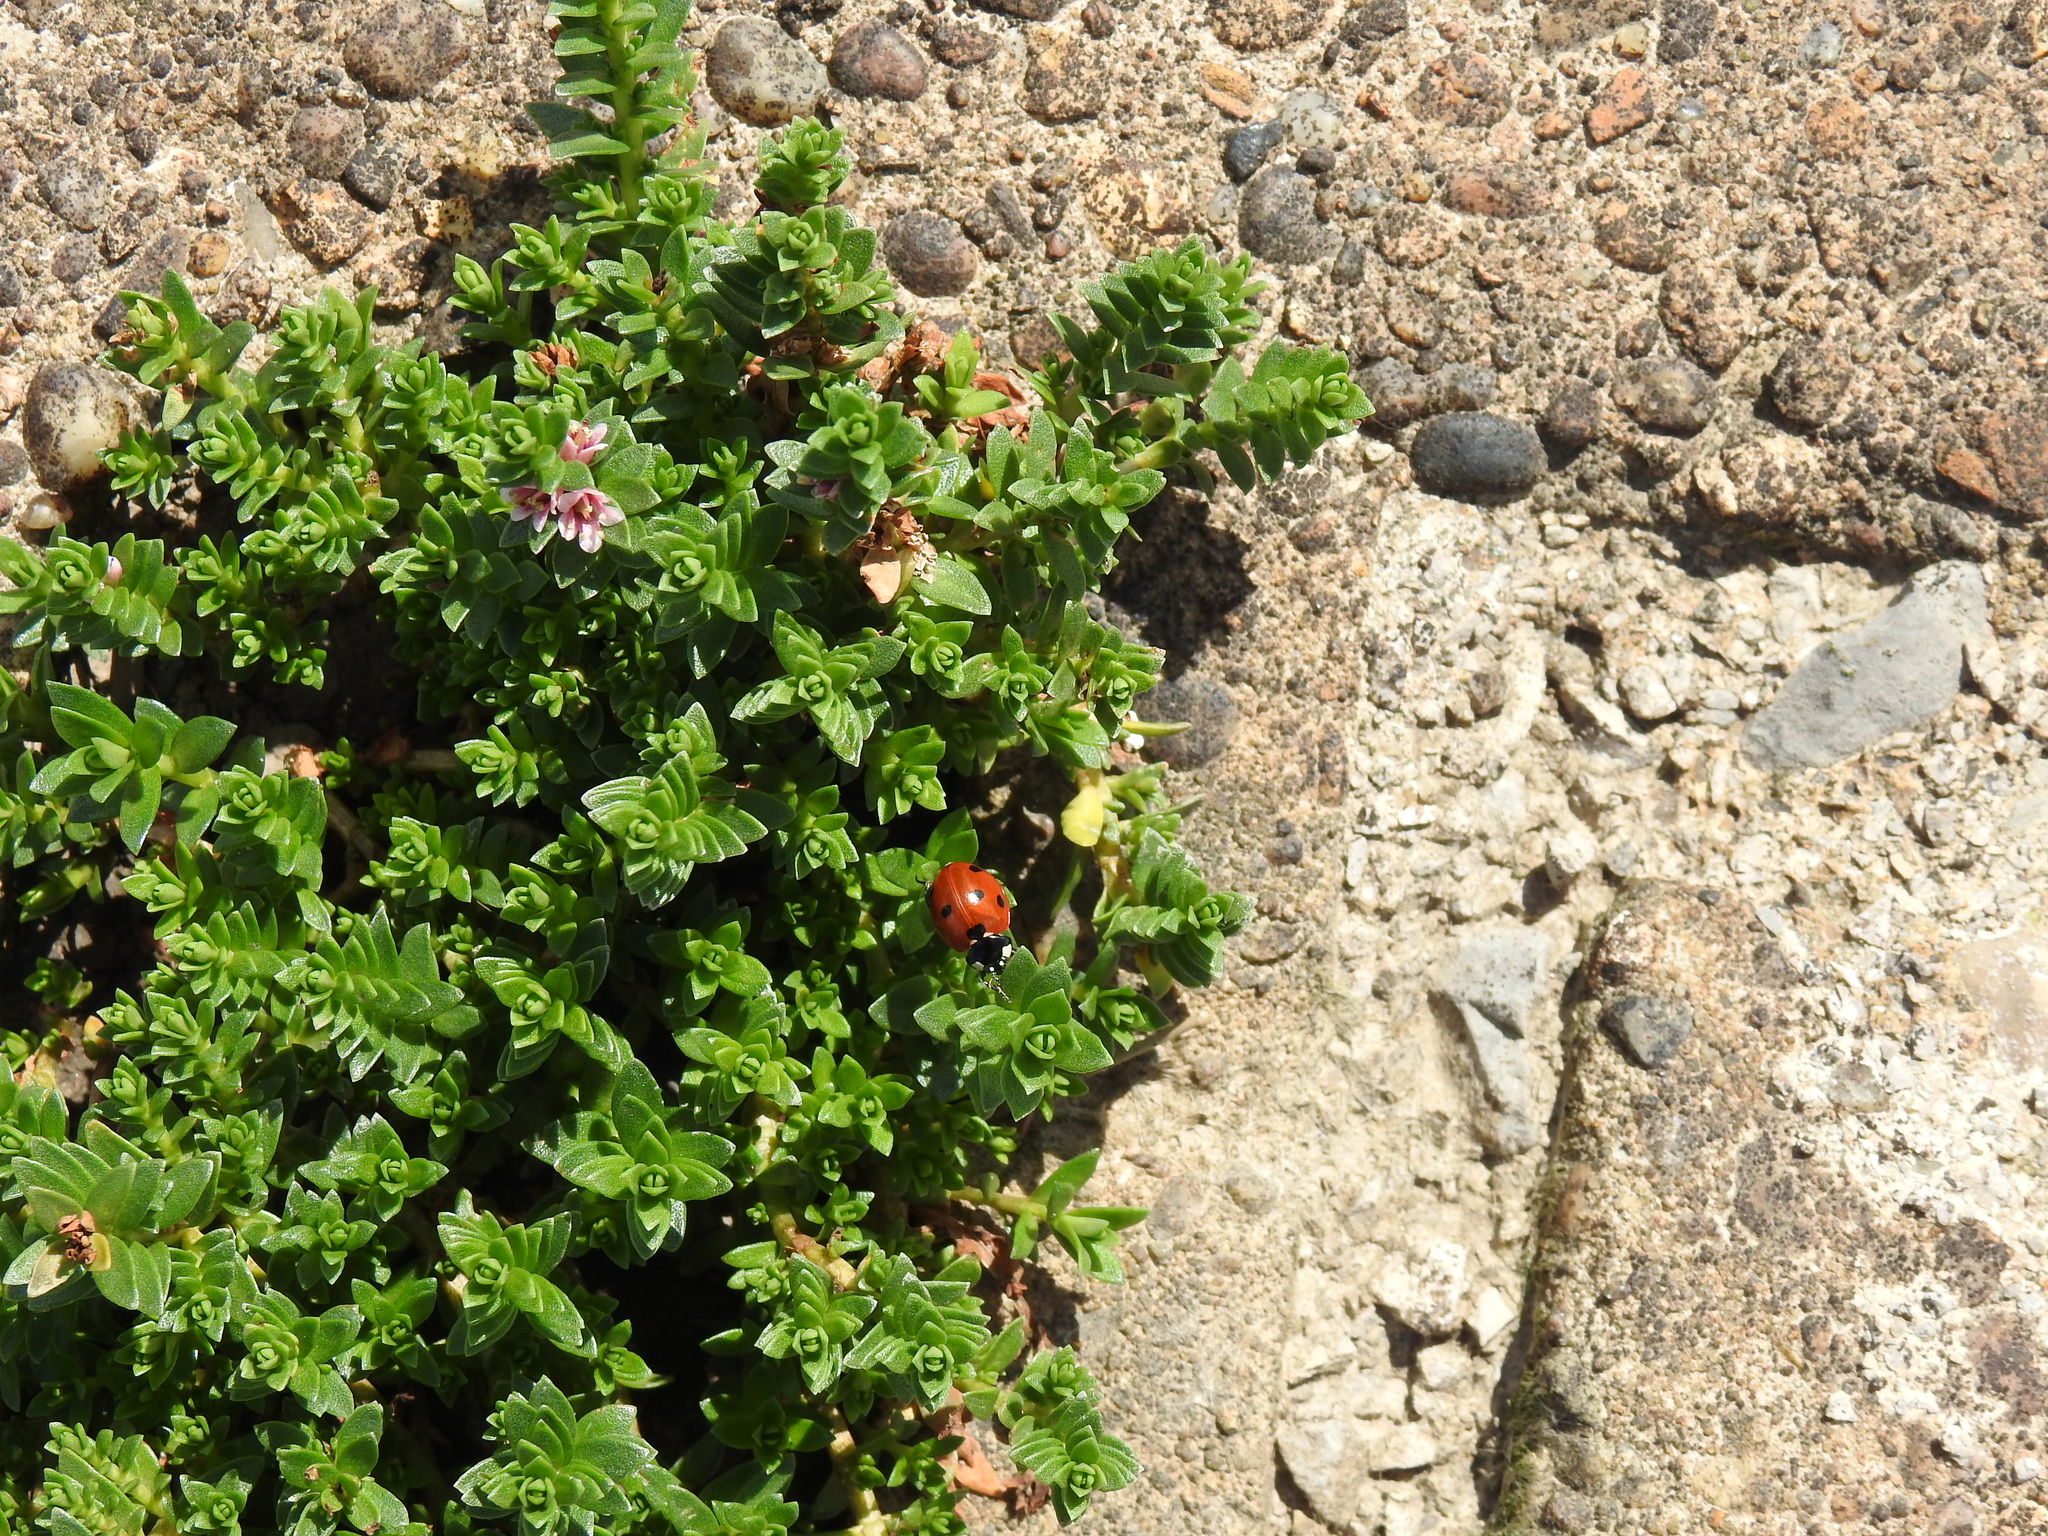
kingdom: Animalia
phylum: Arthropoda
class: Insecta
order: Coleoptera
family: Coccinellidae
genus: Coccinella
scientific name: Coccinella septempunctata
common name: Sevenspotted lady beetle
